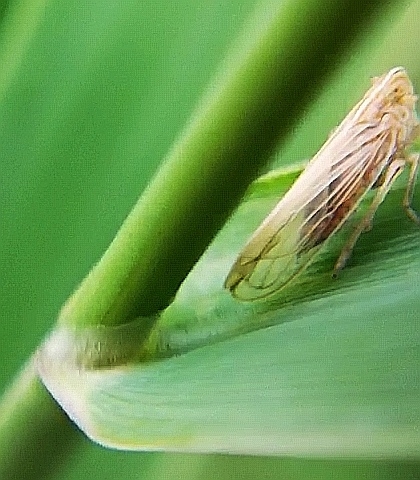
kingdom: Animalia
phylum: Arthropoda
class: Insecta
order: Hemiptera
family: Delphacidae
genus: Stenocranus
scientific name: Stenocranus major
